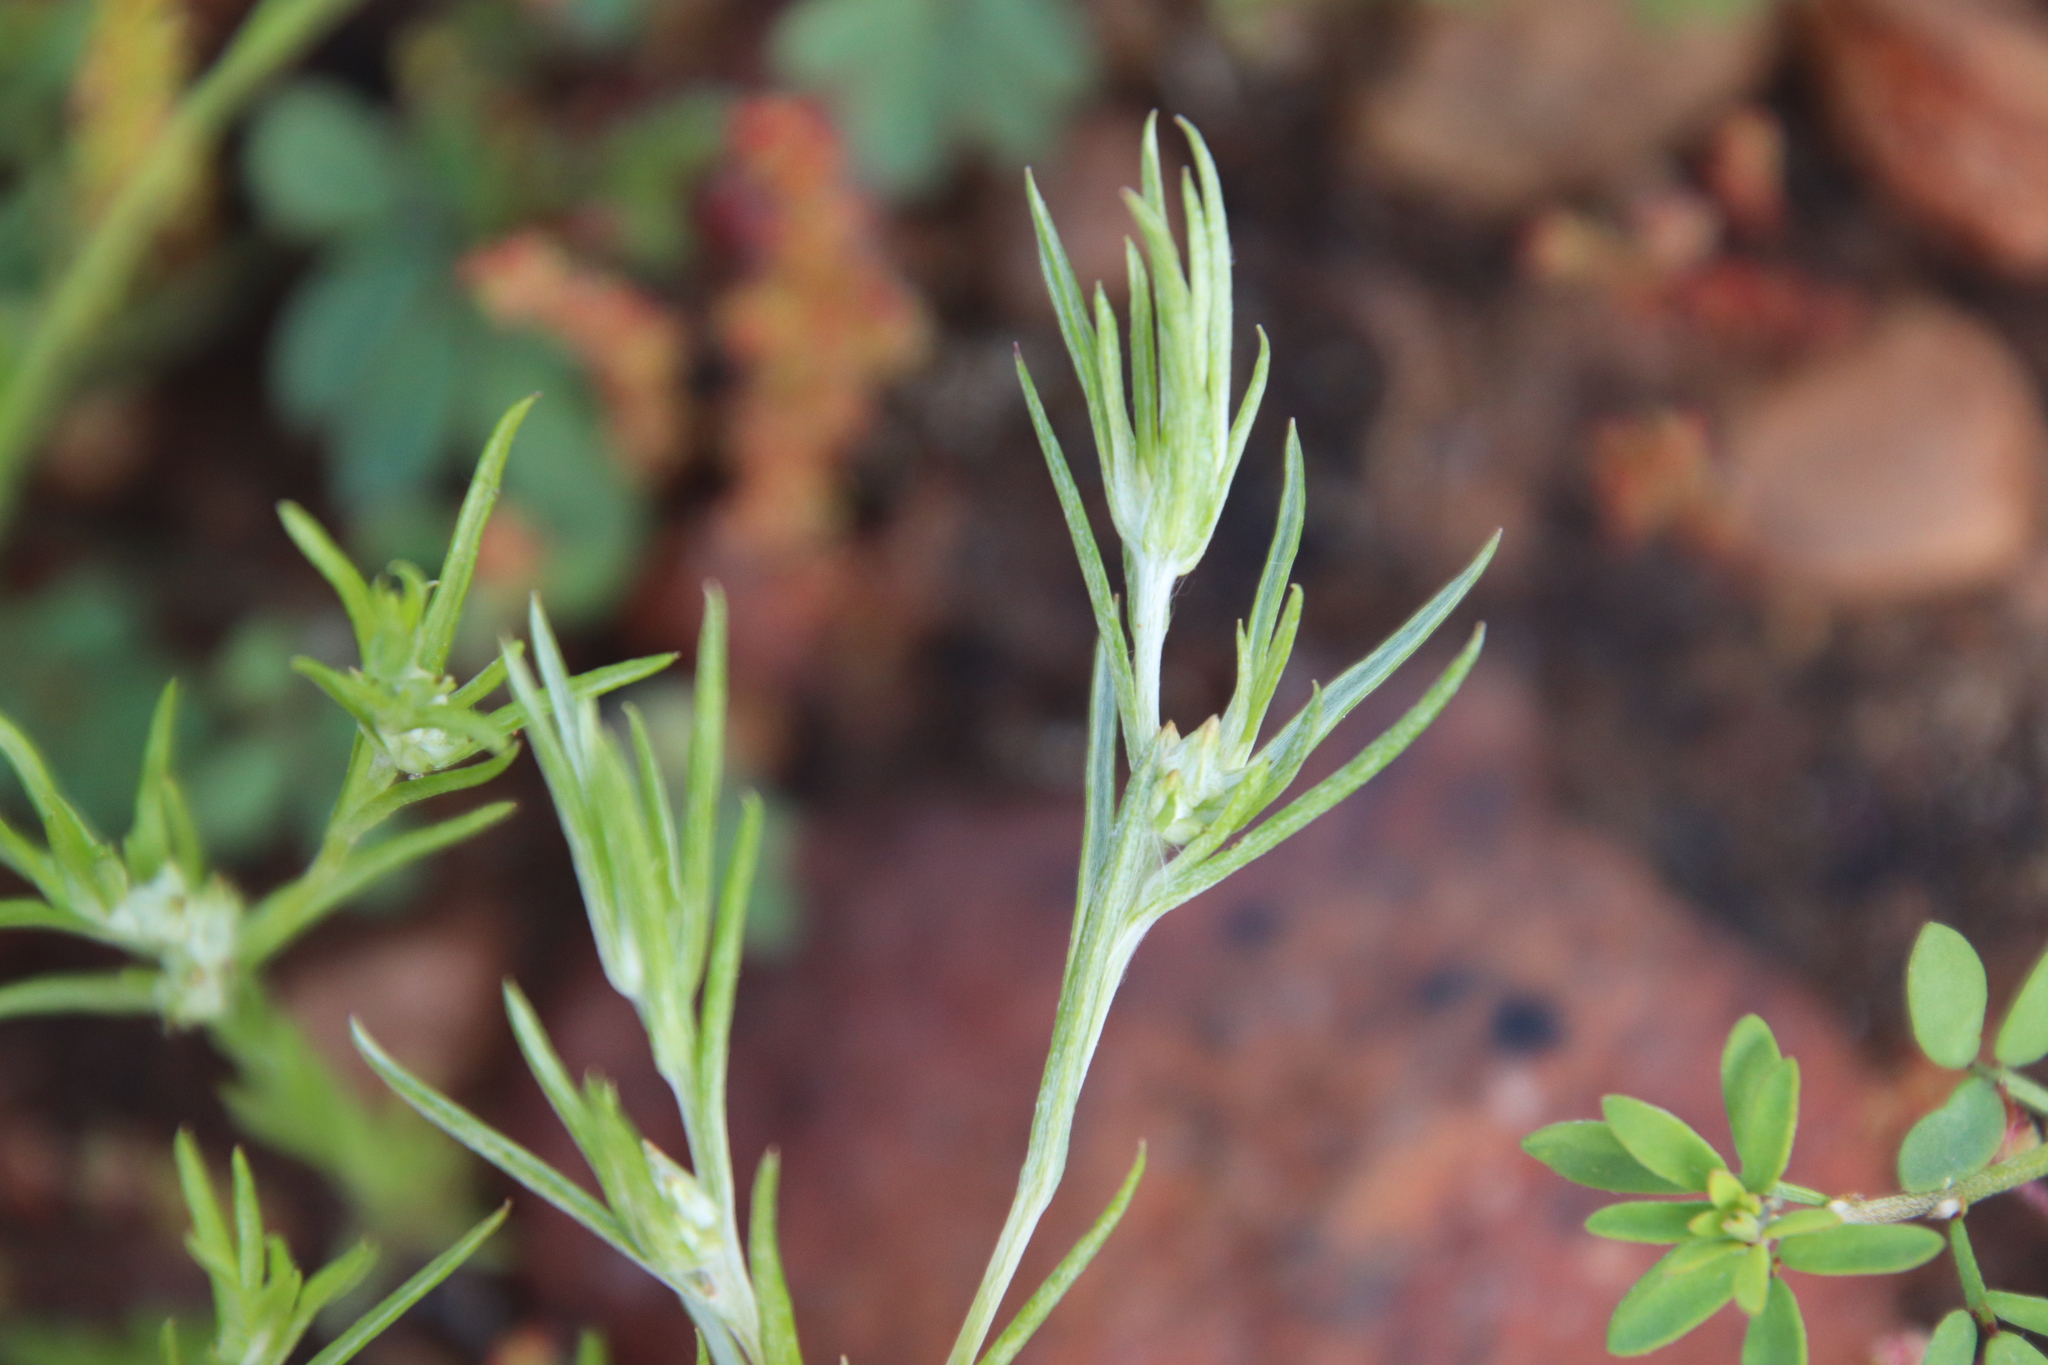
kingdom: Plantae
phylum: Tracheophyta
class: Magnoliopsida
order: Asterales
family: Asteraceae
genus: Logfia
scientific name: Logfia gallica
